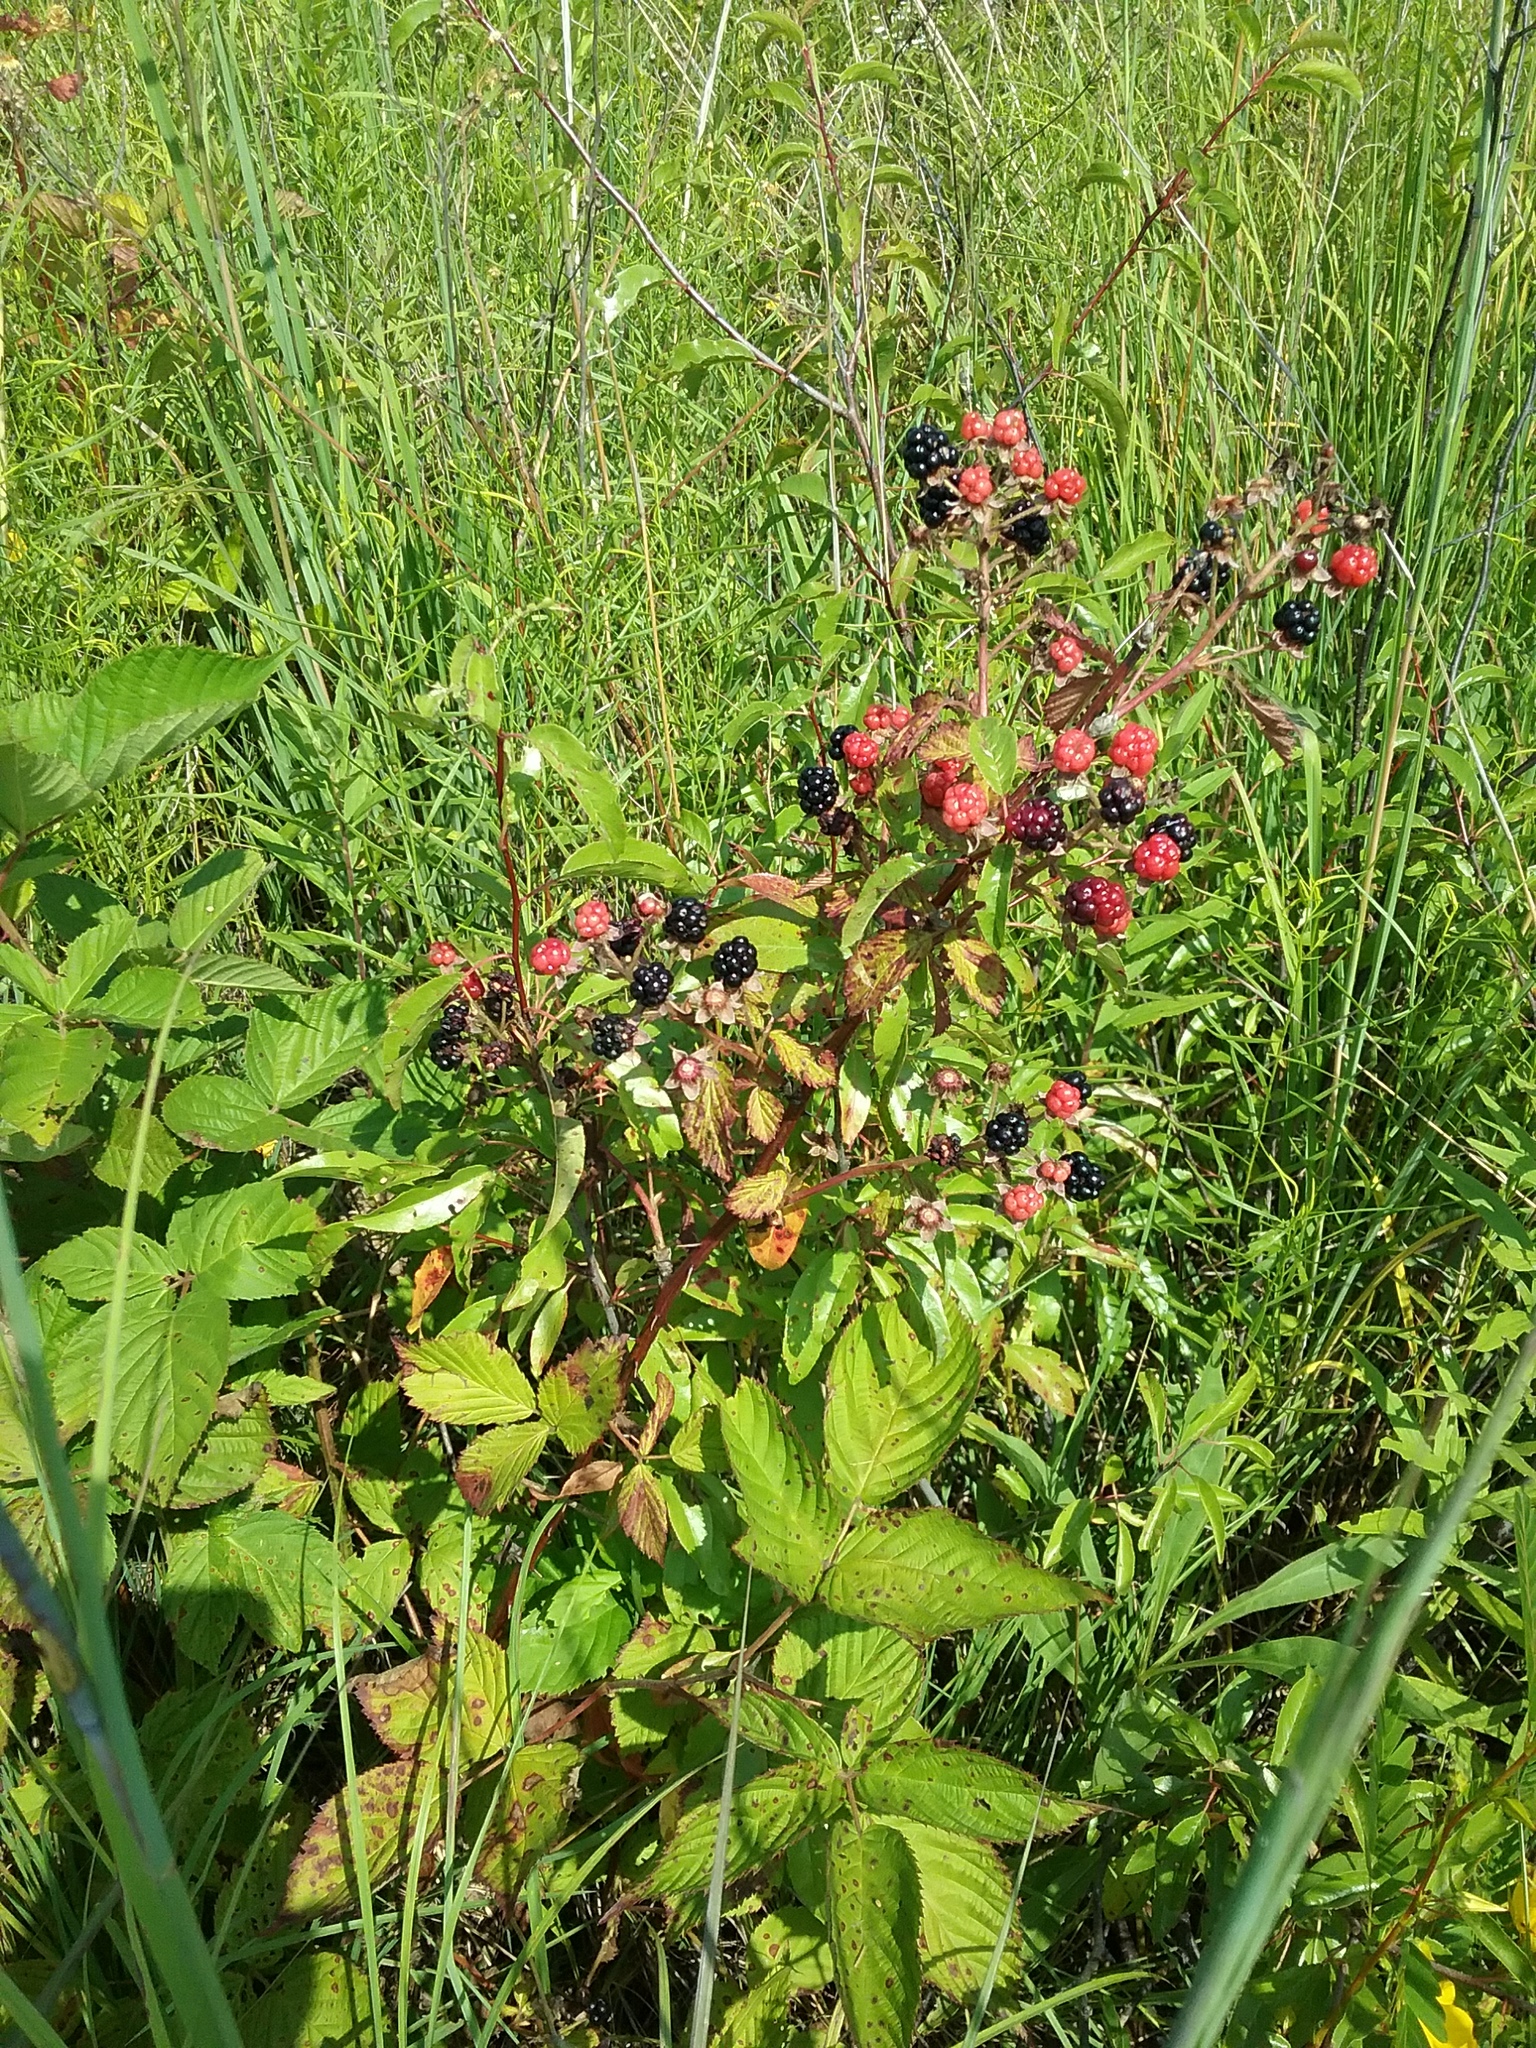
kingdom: Plantae
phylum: Tracheophyta
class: Magnoliopsida
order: Rosales
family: Rosaceae
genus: Rubus
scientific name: Rubus allegheniensis
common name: Allegheny blackberry
